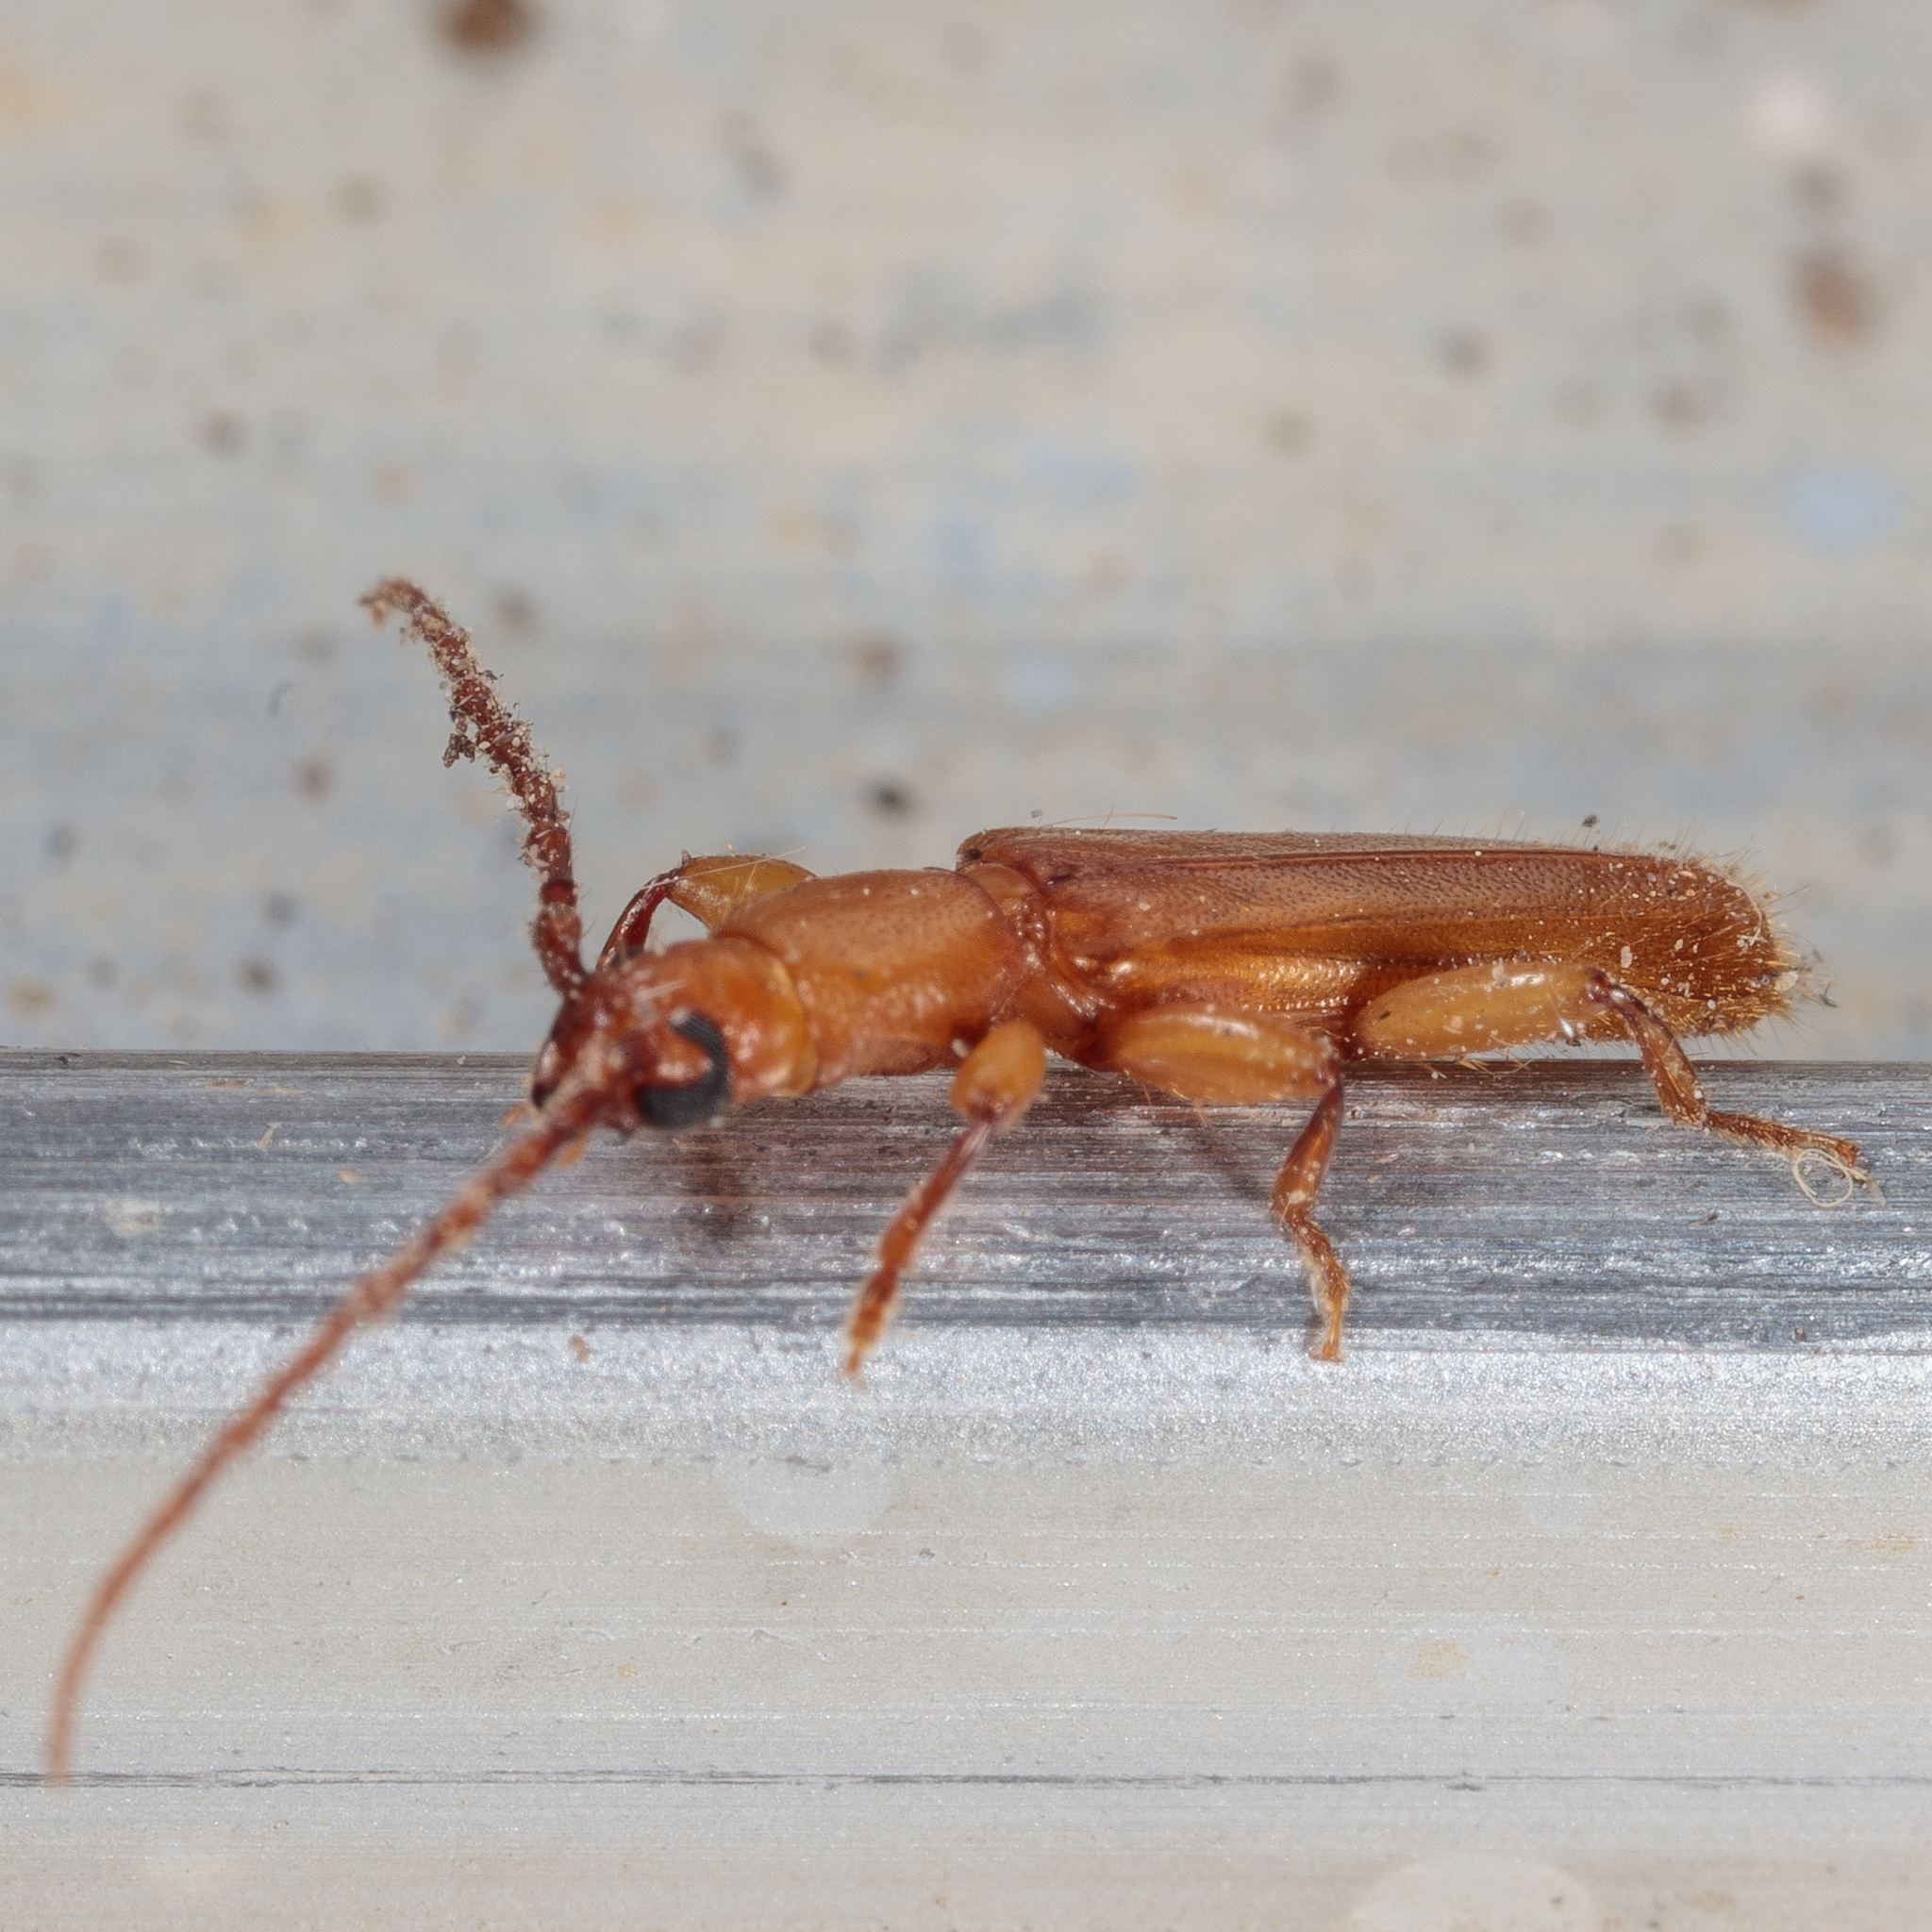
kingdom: Animalia
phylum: Arthropoda
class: Insecta
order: Coleoptera
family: Cerambycidae
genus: Smodicum
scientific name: Smodicum cucujiforme
